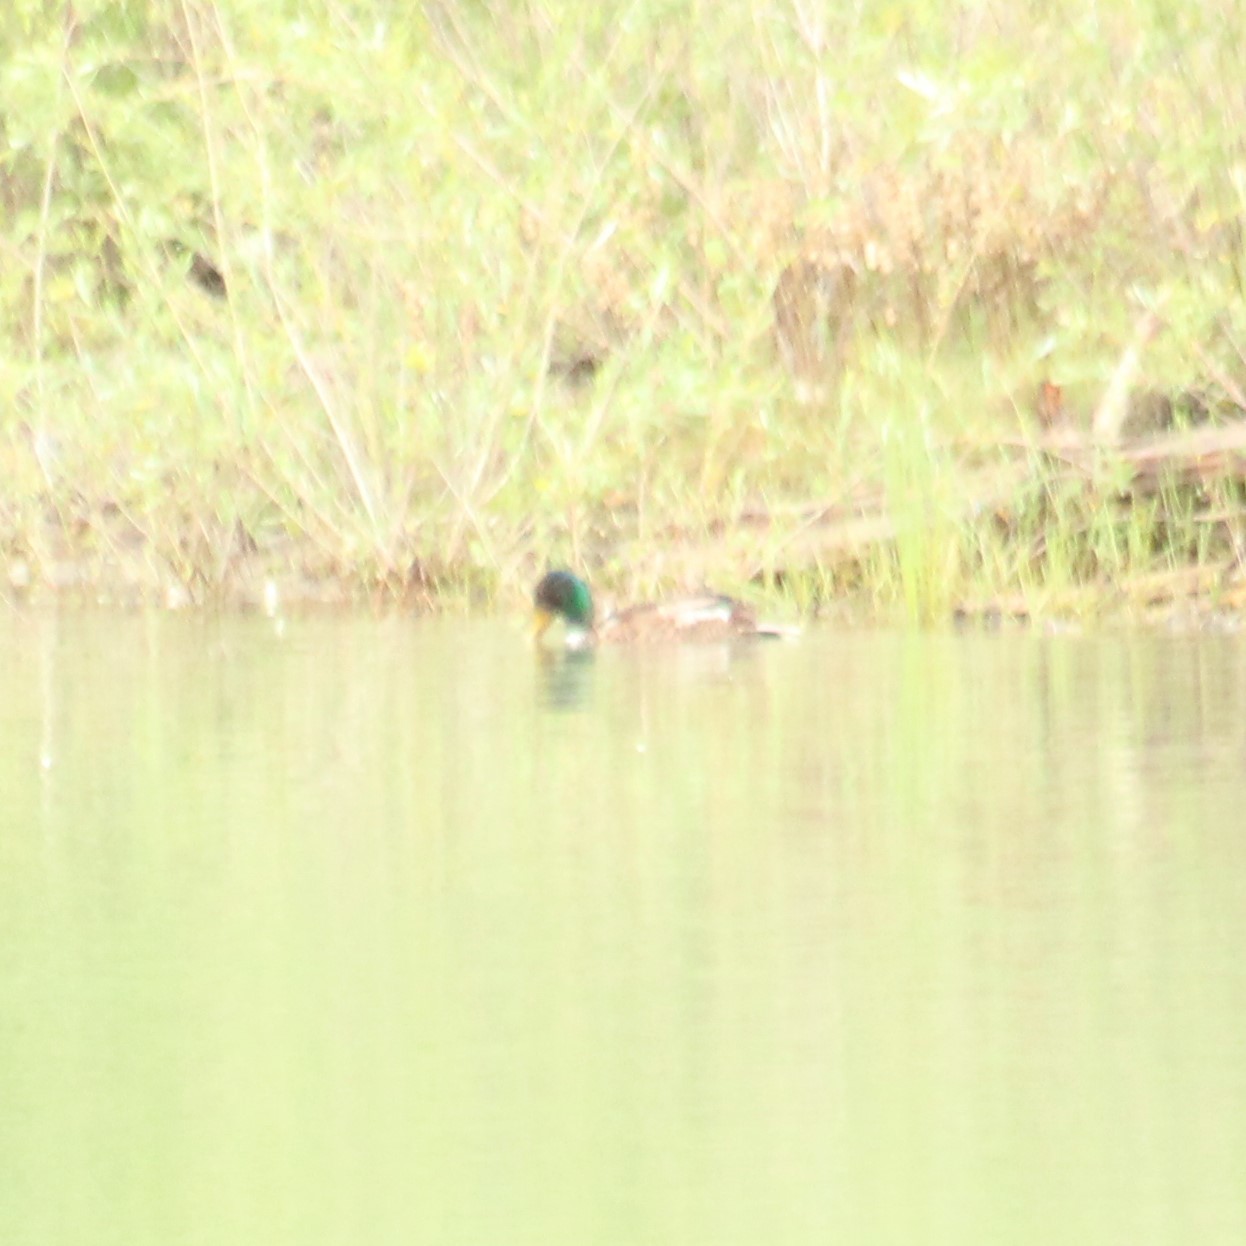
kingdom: Animalia
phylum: Chordata
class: Aves
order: Anseriformes
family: Anatidae
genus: Anas
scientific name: Anas platyrhynchos
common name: Mallard
